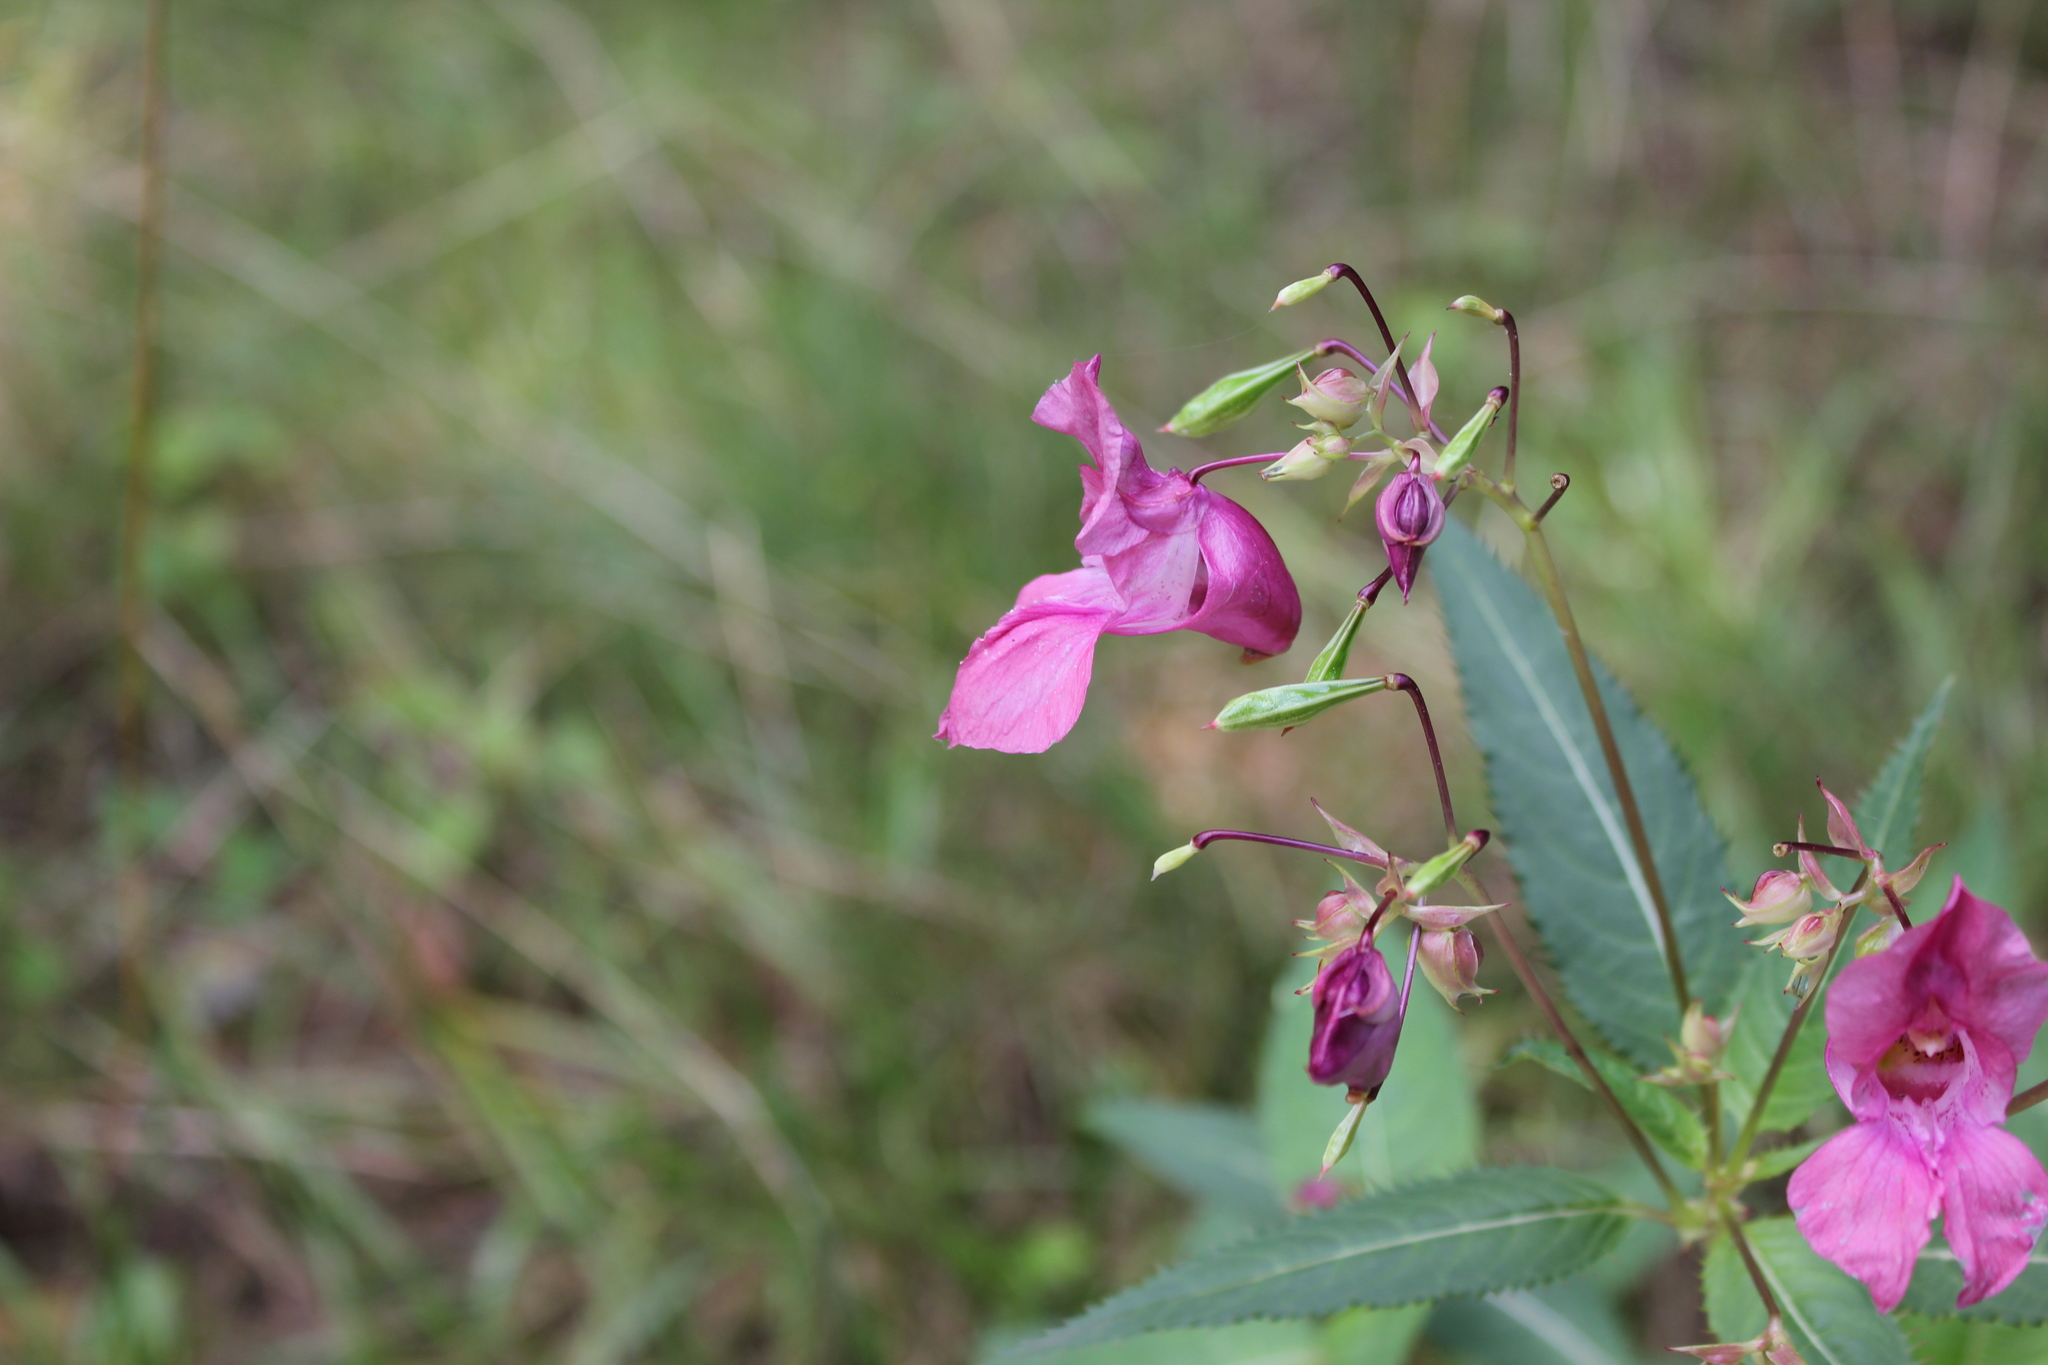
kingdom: Plantae
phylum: Tracheophyta
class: Magnoliopsida
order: Ericales
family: Balsaminaceae
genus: Impatiens
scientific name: Impatiens glandulifera
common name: Himalayan balsam
